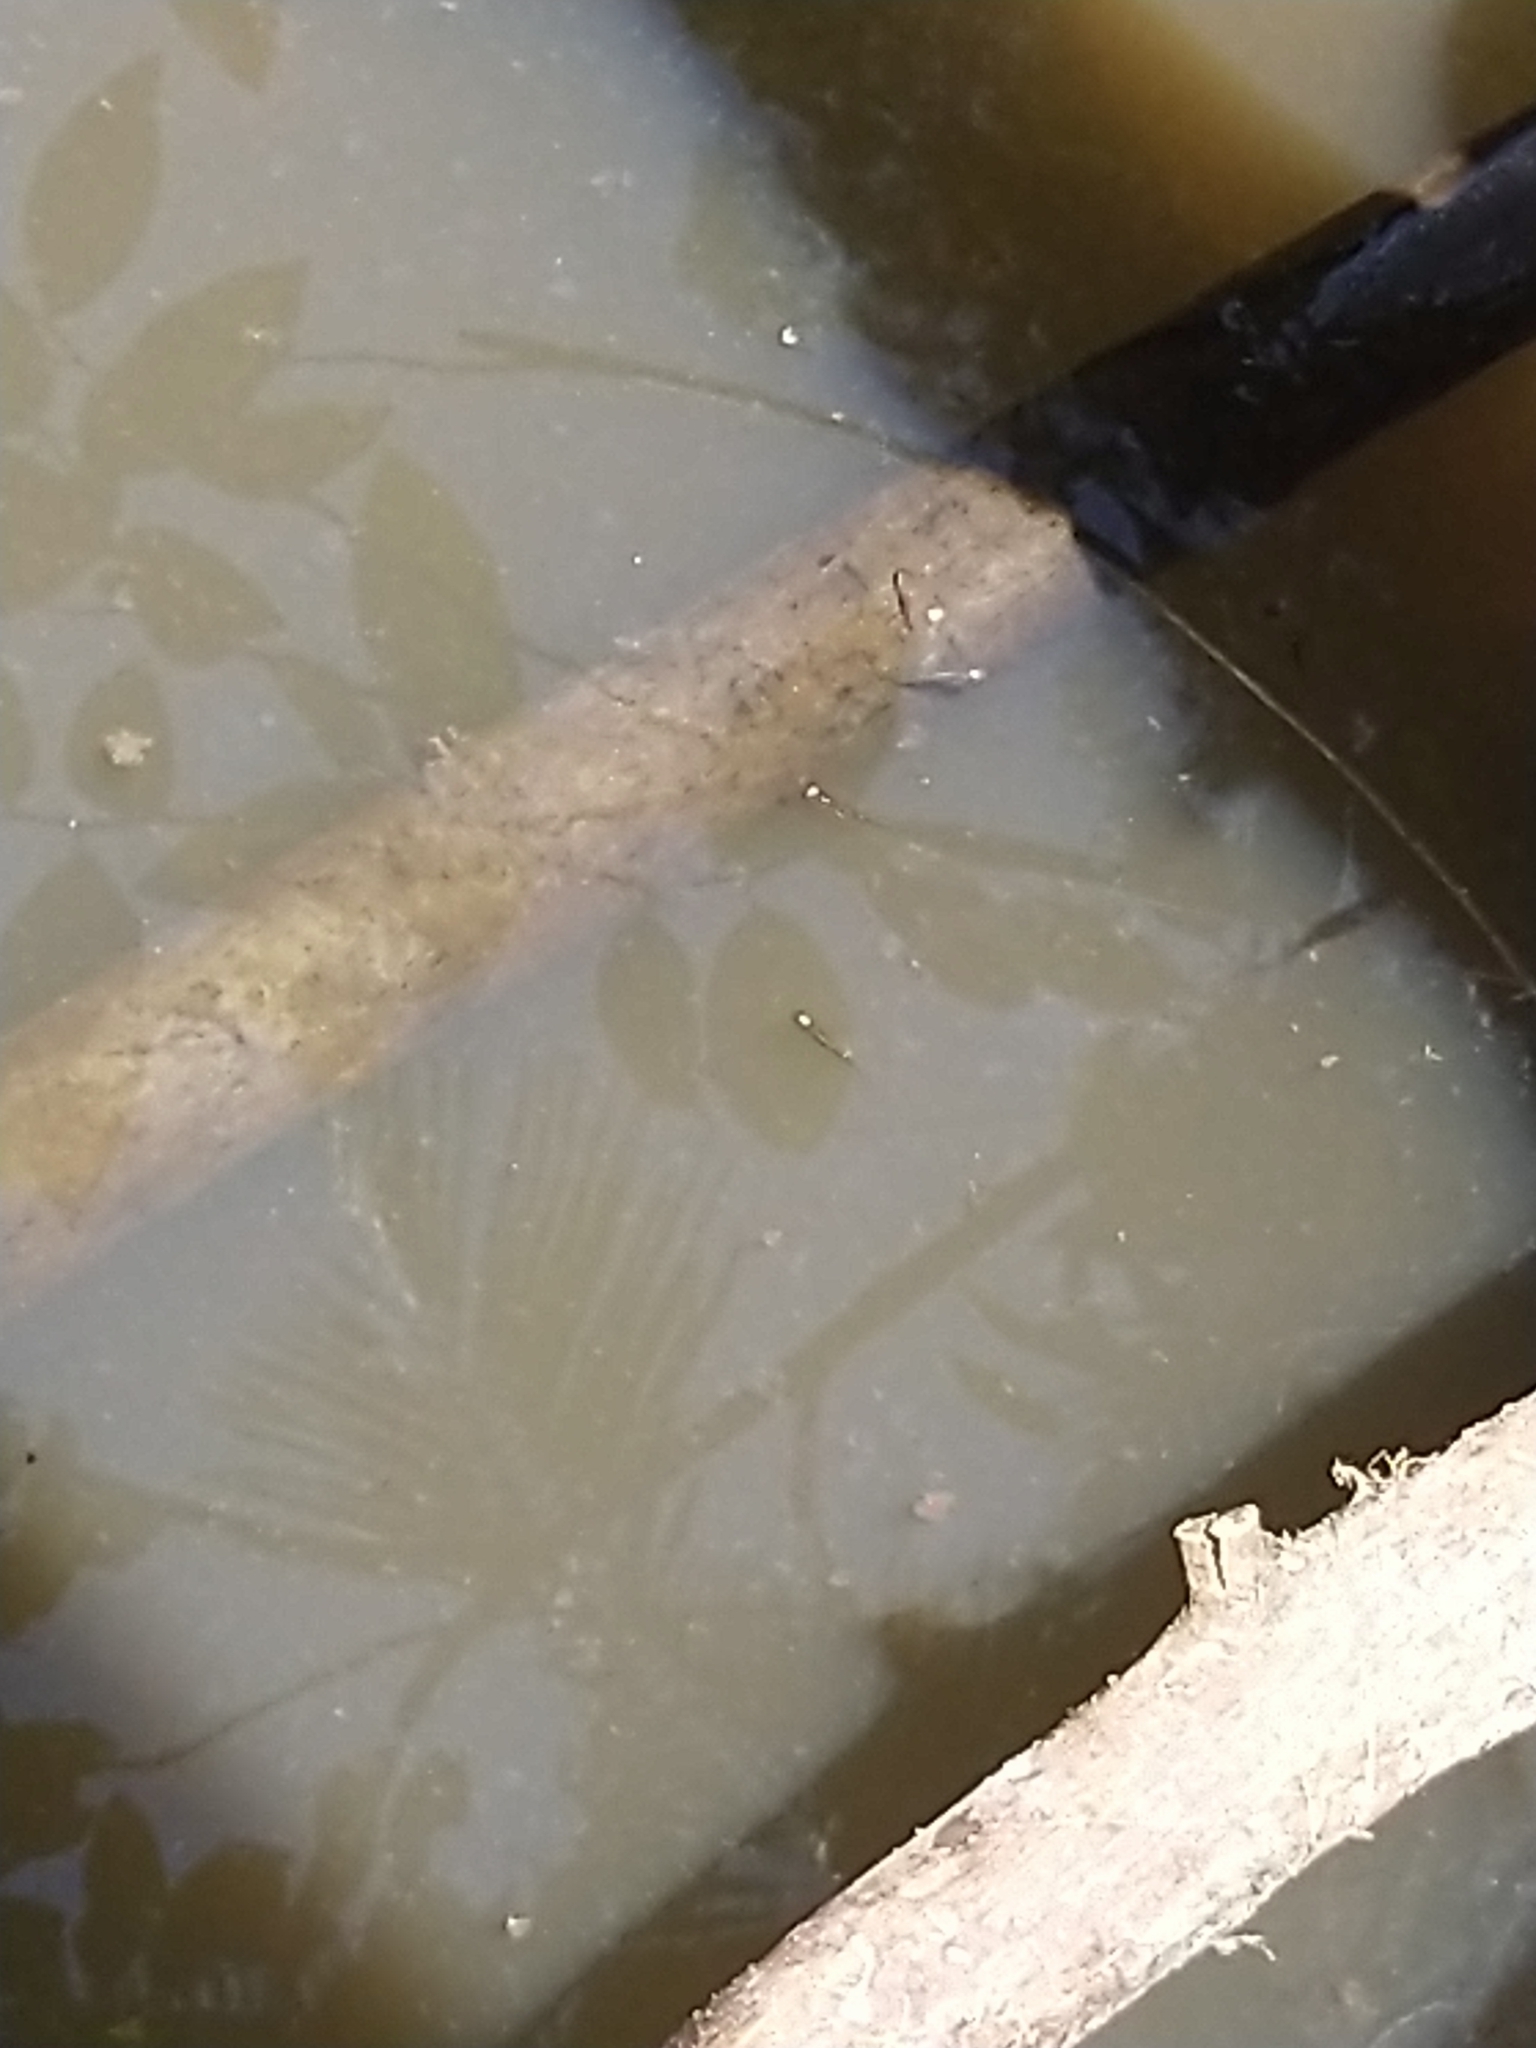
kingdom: Animalia
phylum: Chordata
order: Cyprinodontiformes
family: Aplocheilidae
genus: Aplocheilus
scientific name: Aplocheilus lineatus
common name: Striped panchax
